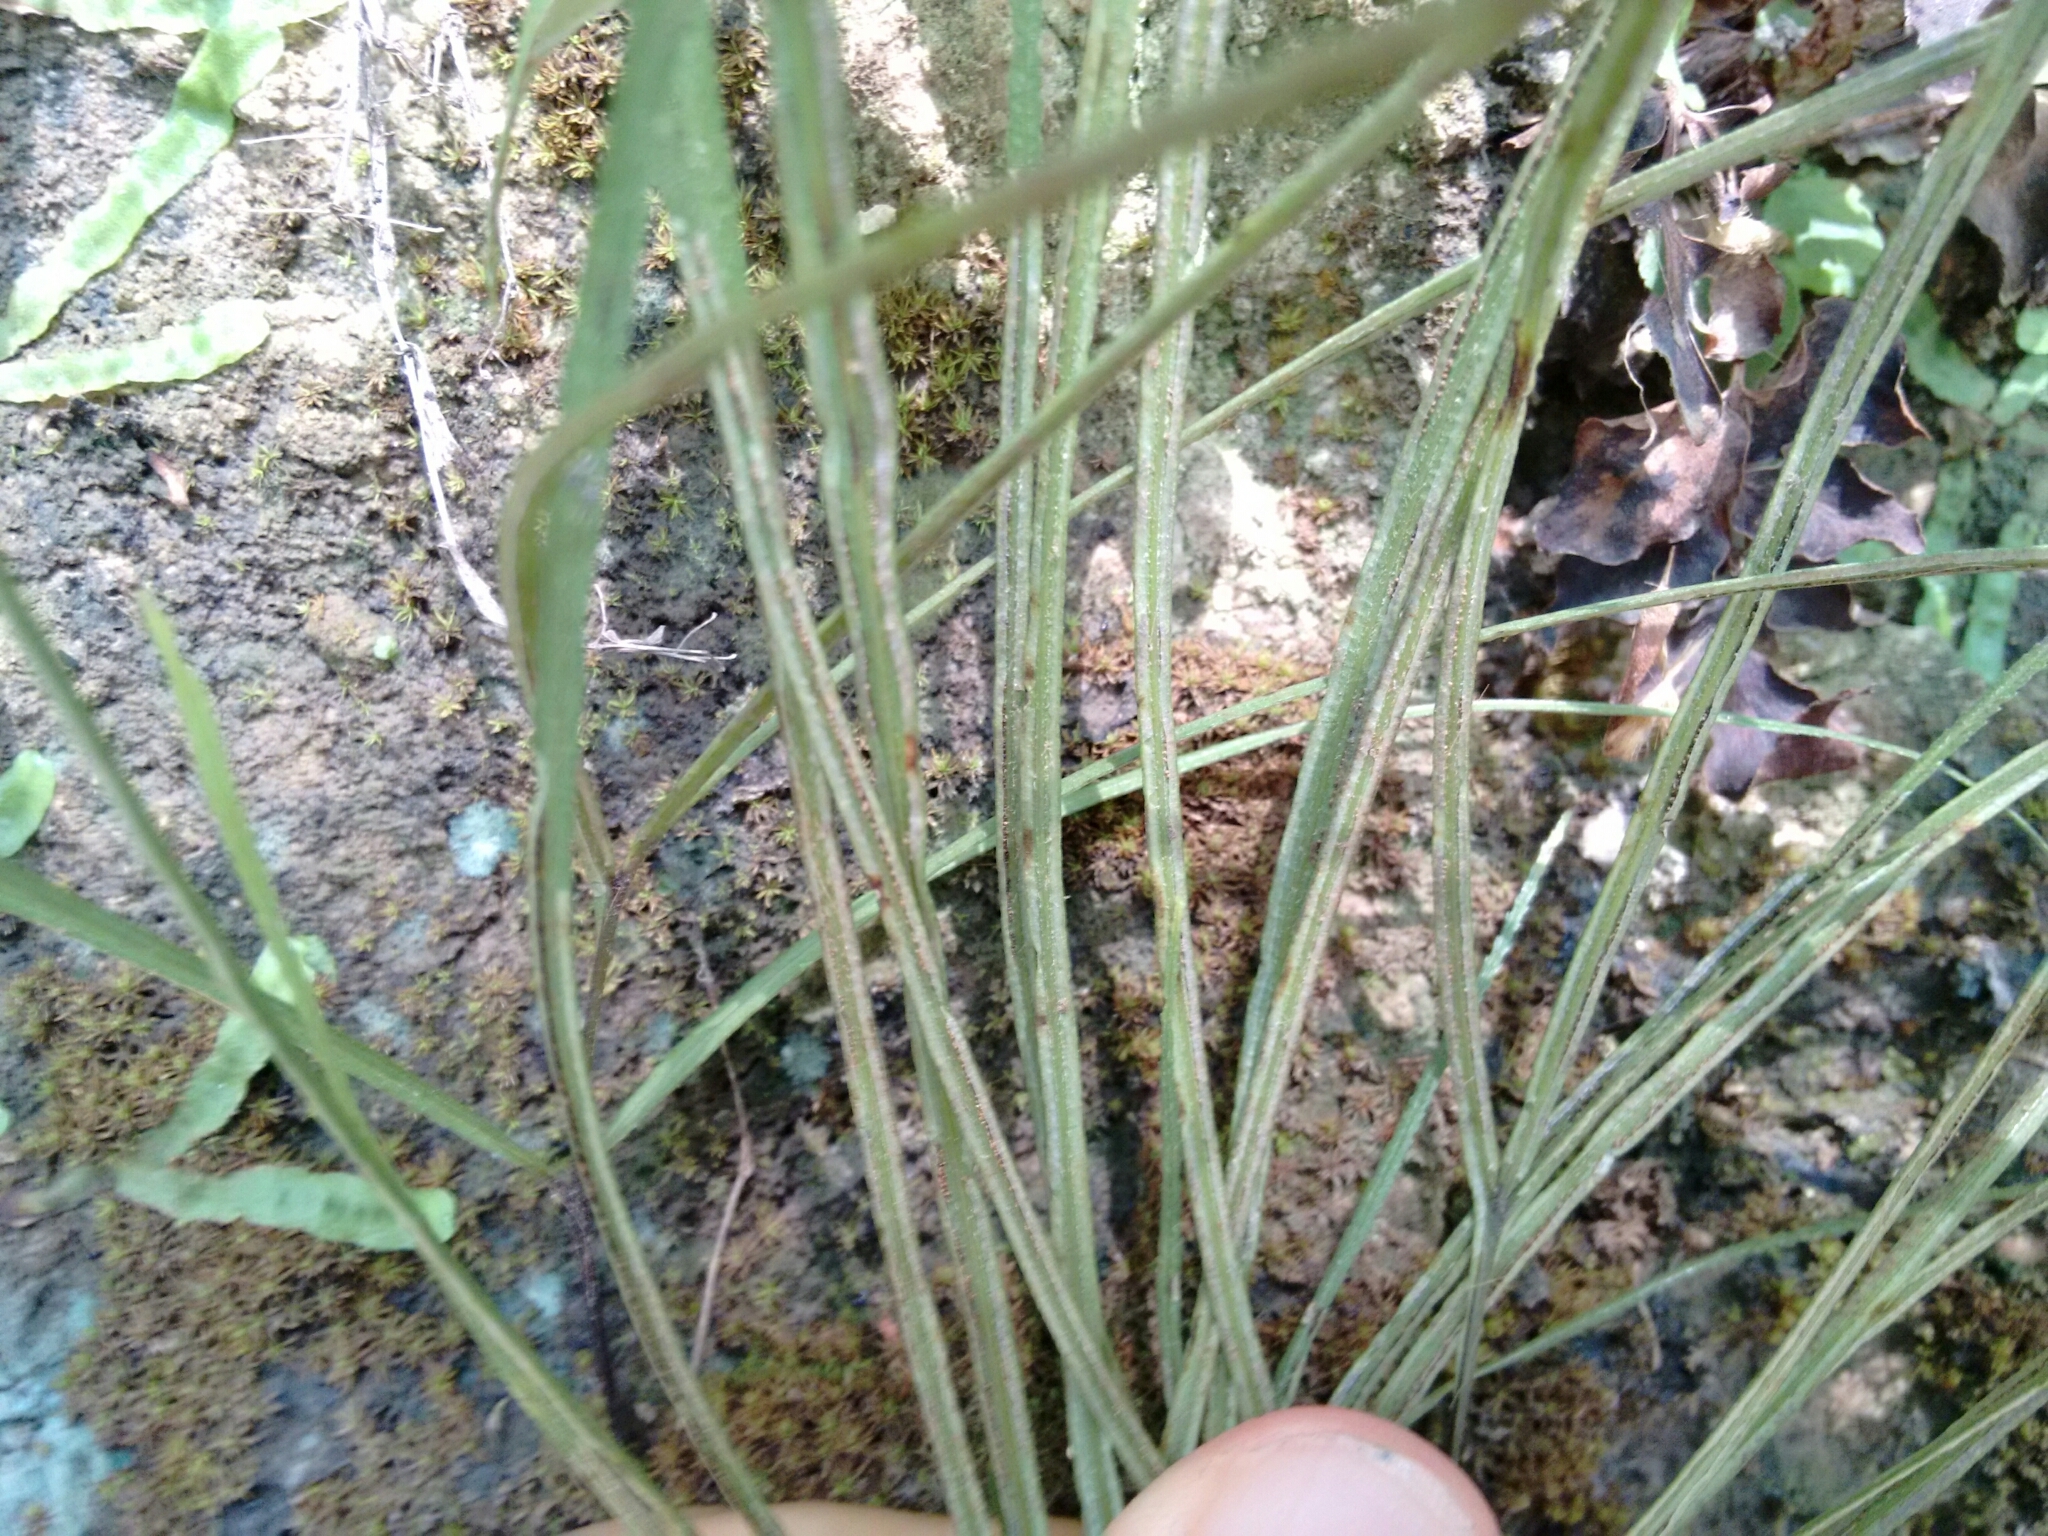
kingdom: Plantae
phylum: Tracheophyta
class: Polypodiopsida
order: Polypodiales
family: Pteridaceae
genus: Pteris
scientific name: Pteris henryi
